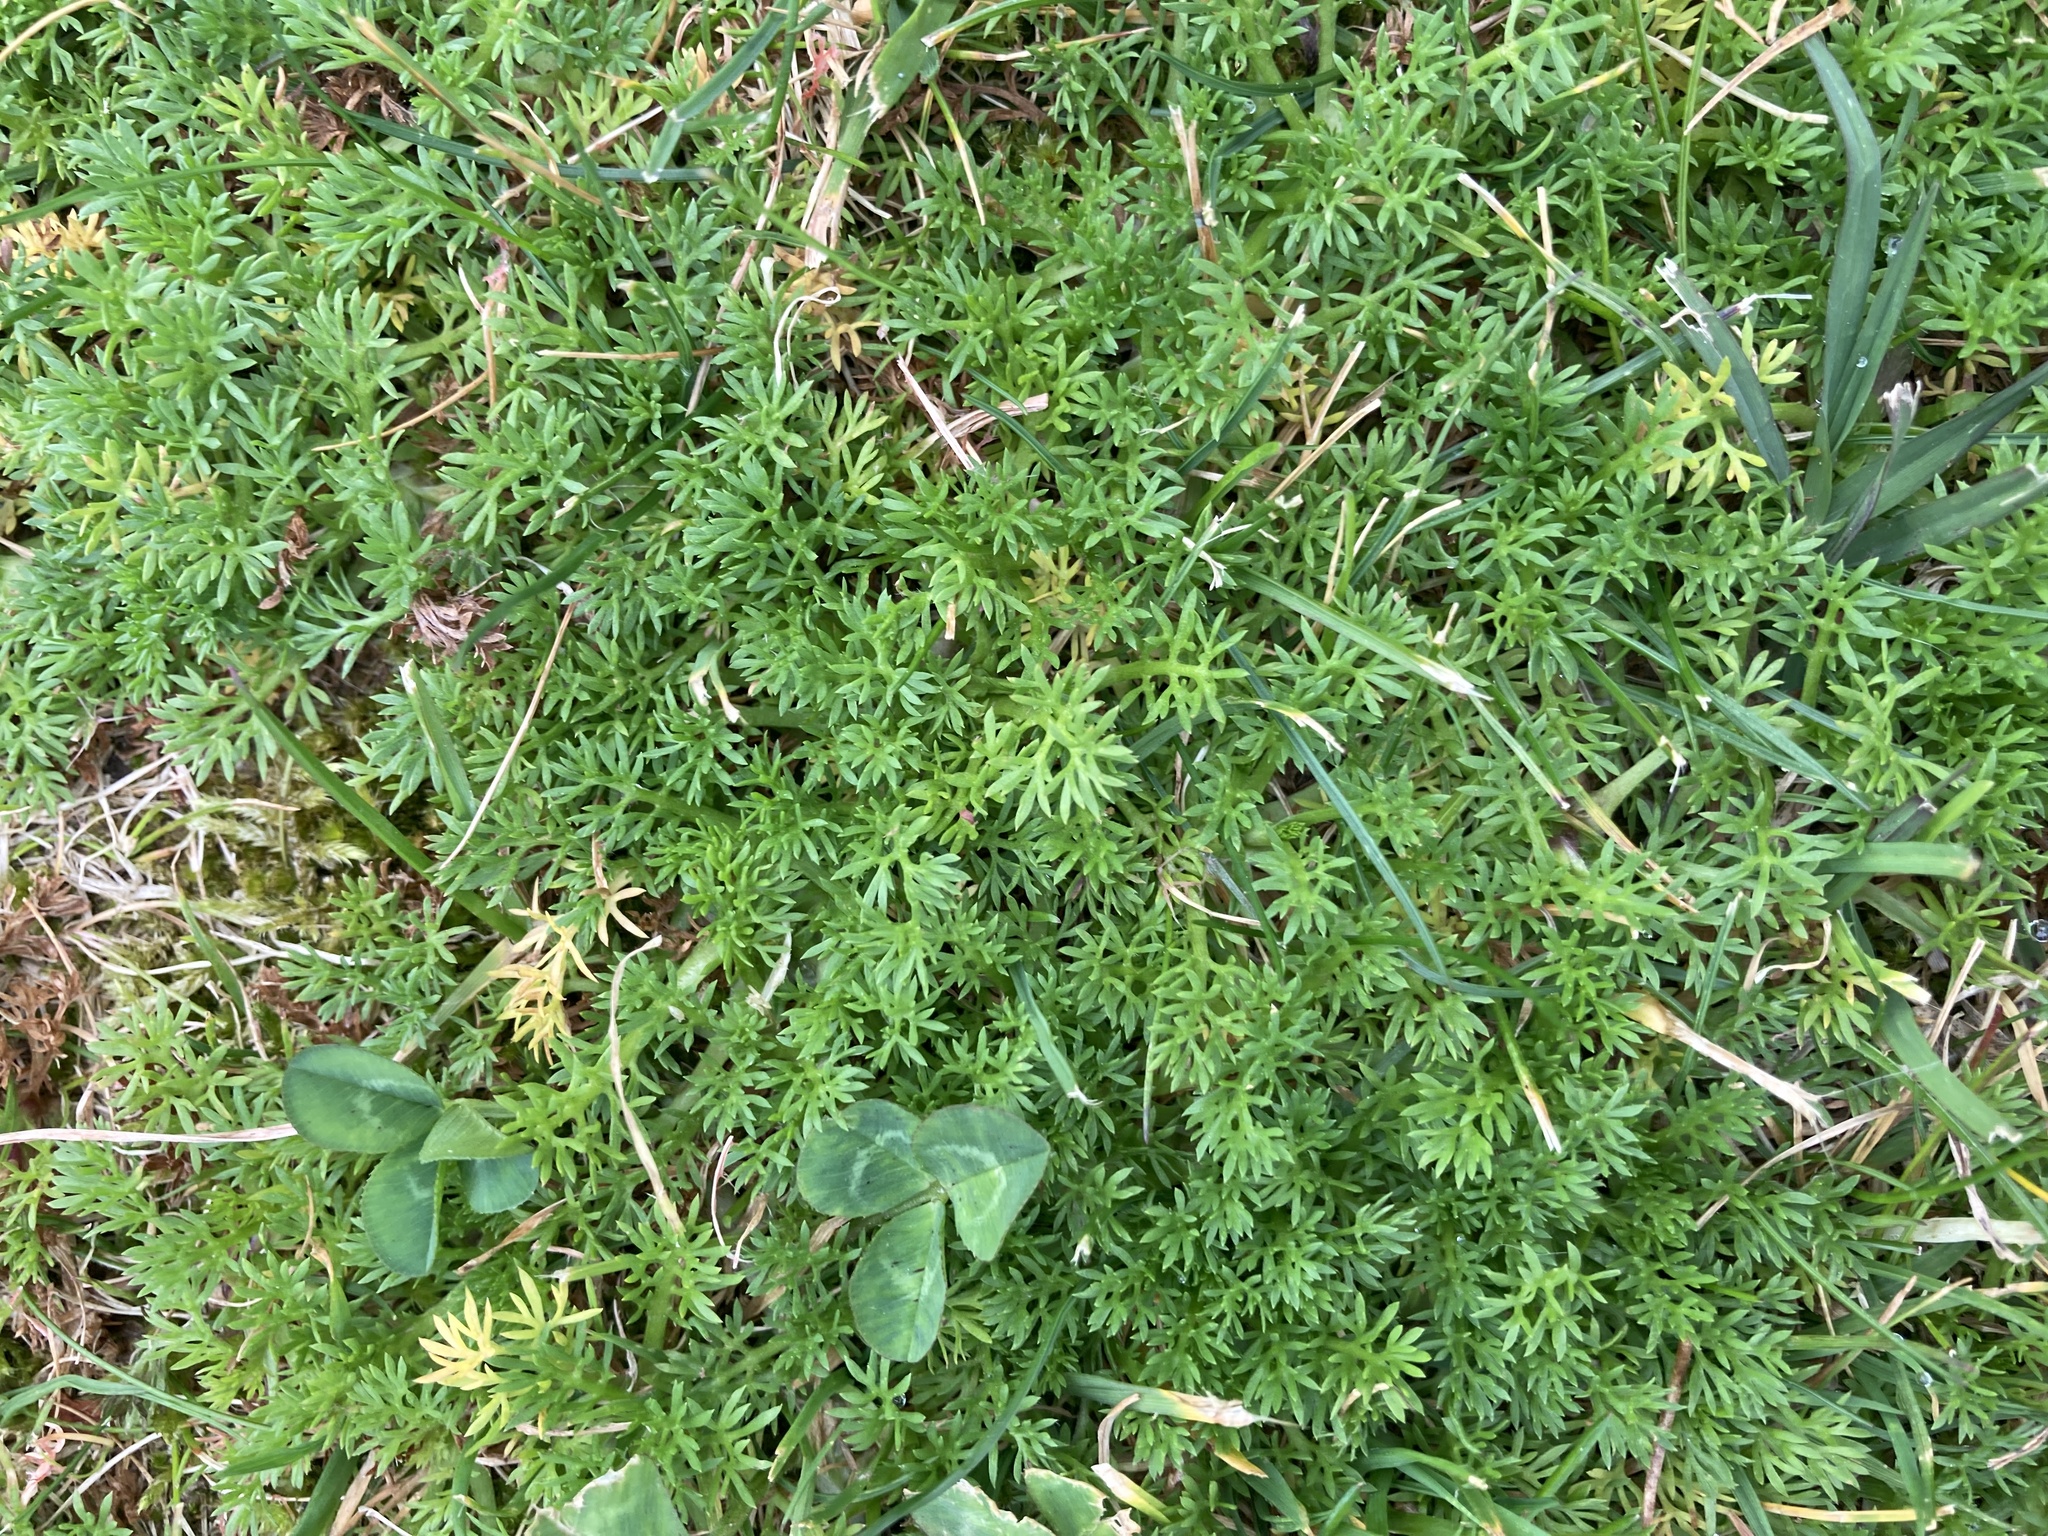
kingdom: Plantae
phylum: Tracheophyta
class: Magnoliopsida
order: Asterales
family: Asteraceae
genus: Soliva
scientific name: Soliva sessilis
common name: Field burrweed
